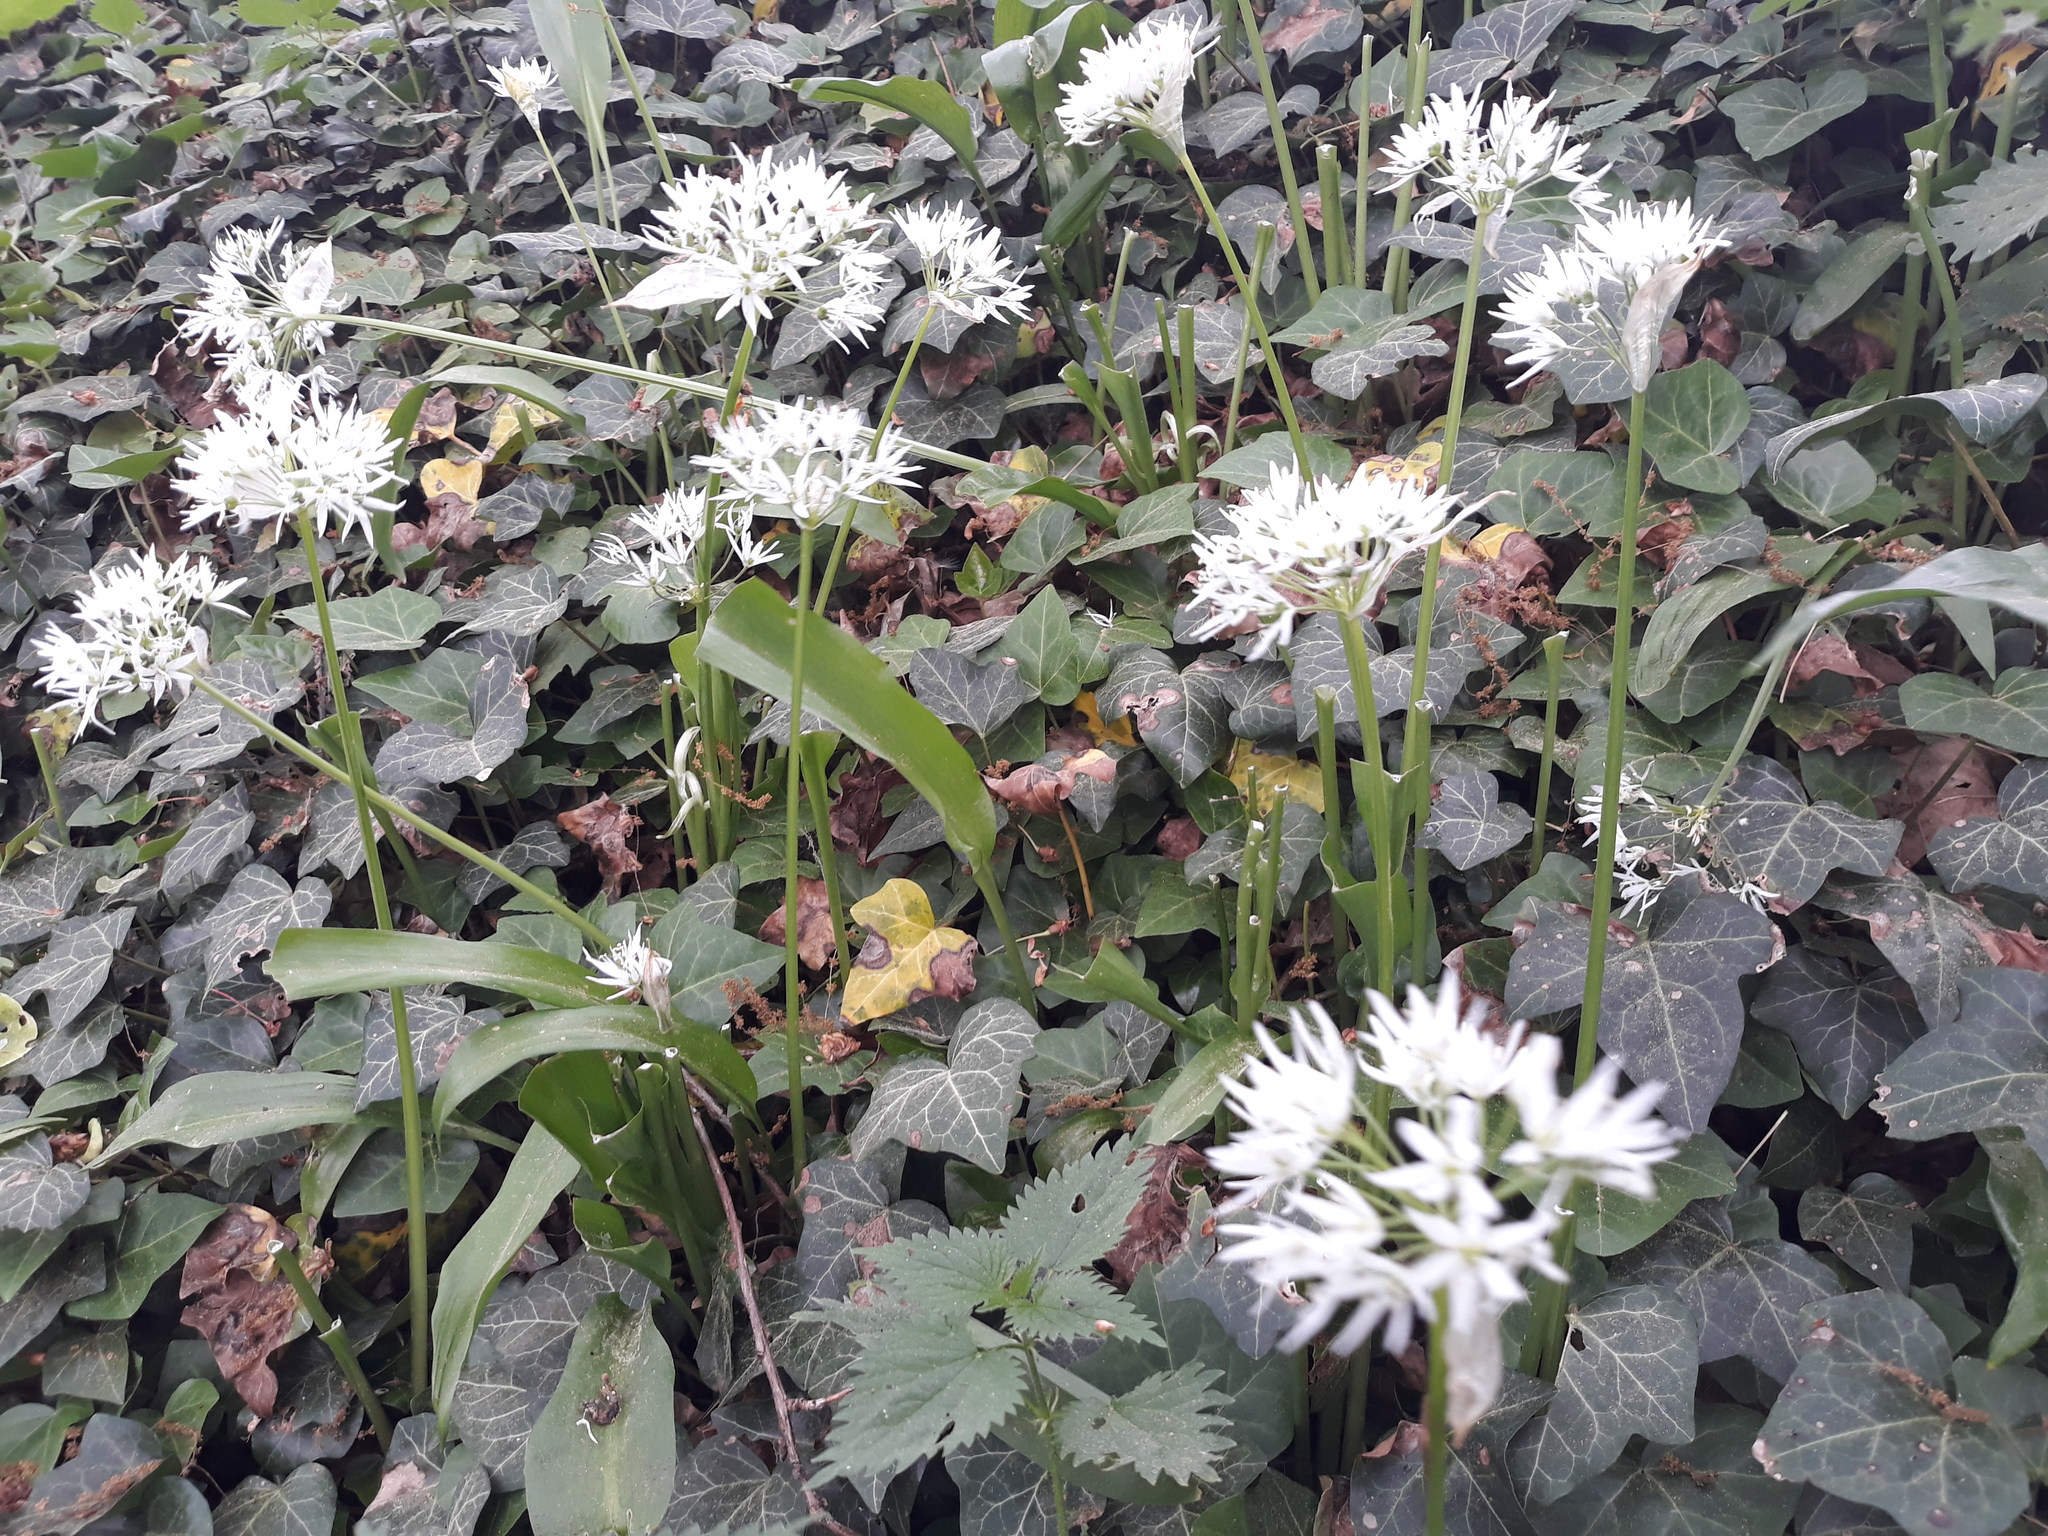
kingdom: Plantae
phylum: Tracheophyta
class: Liliopsida
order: Asparagales
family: Amaryllidaceae
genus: Allium
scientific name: Allium ursinum
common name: Ramsons
